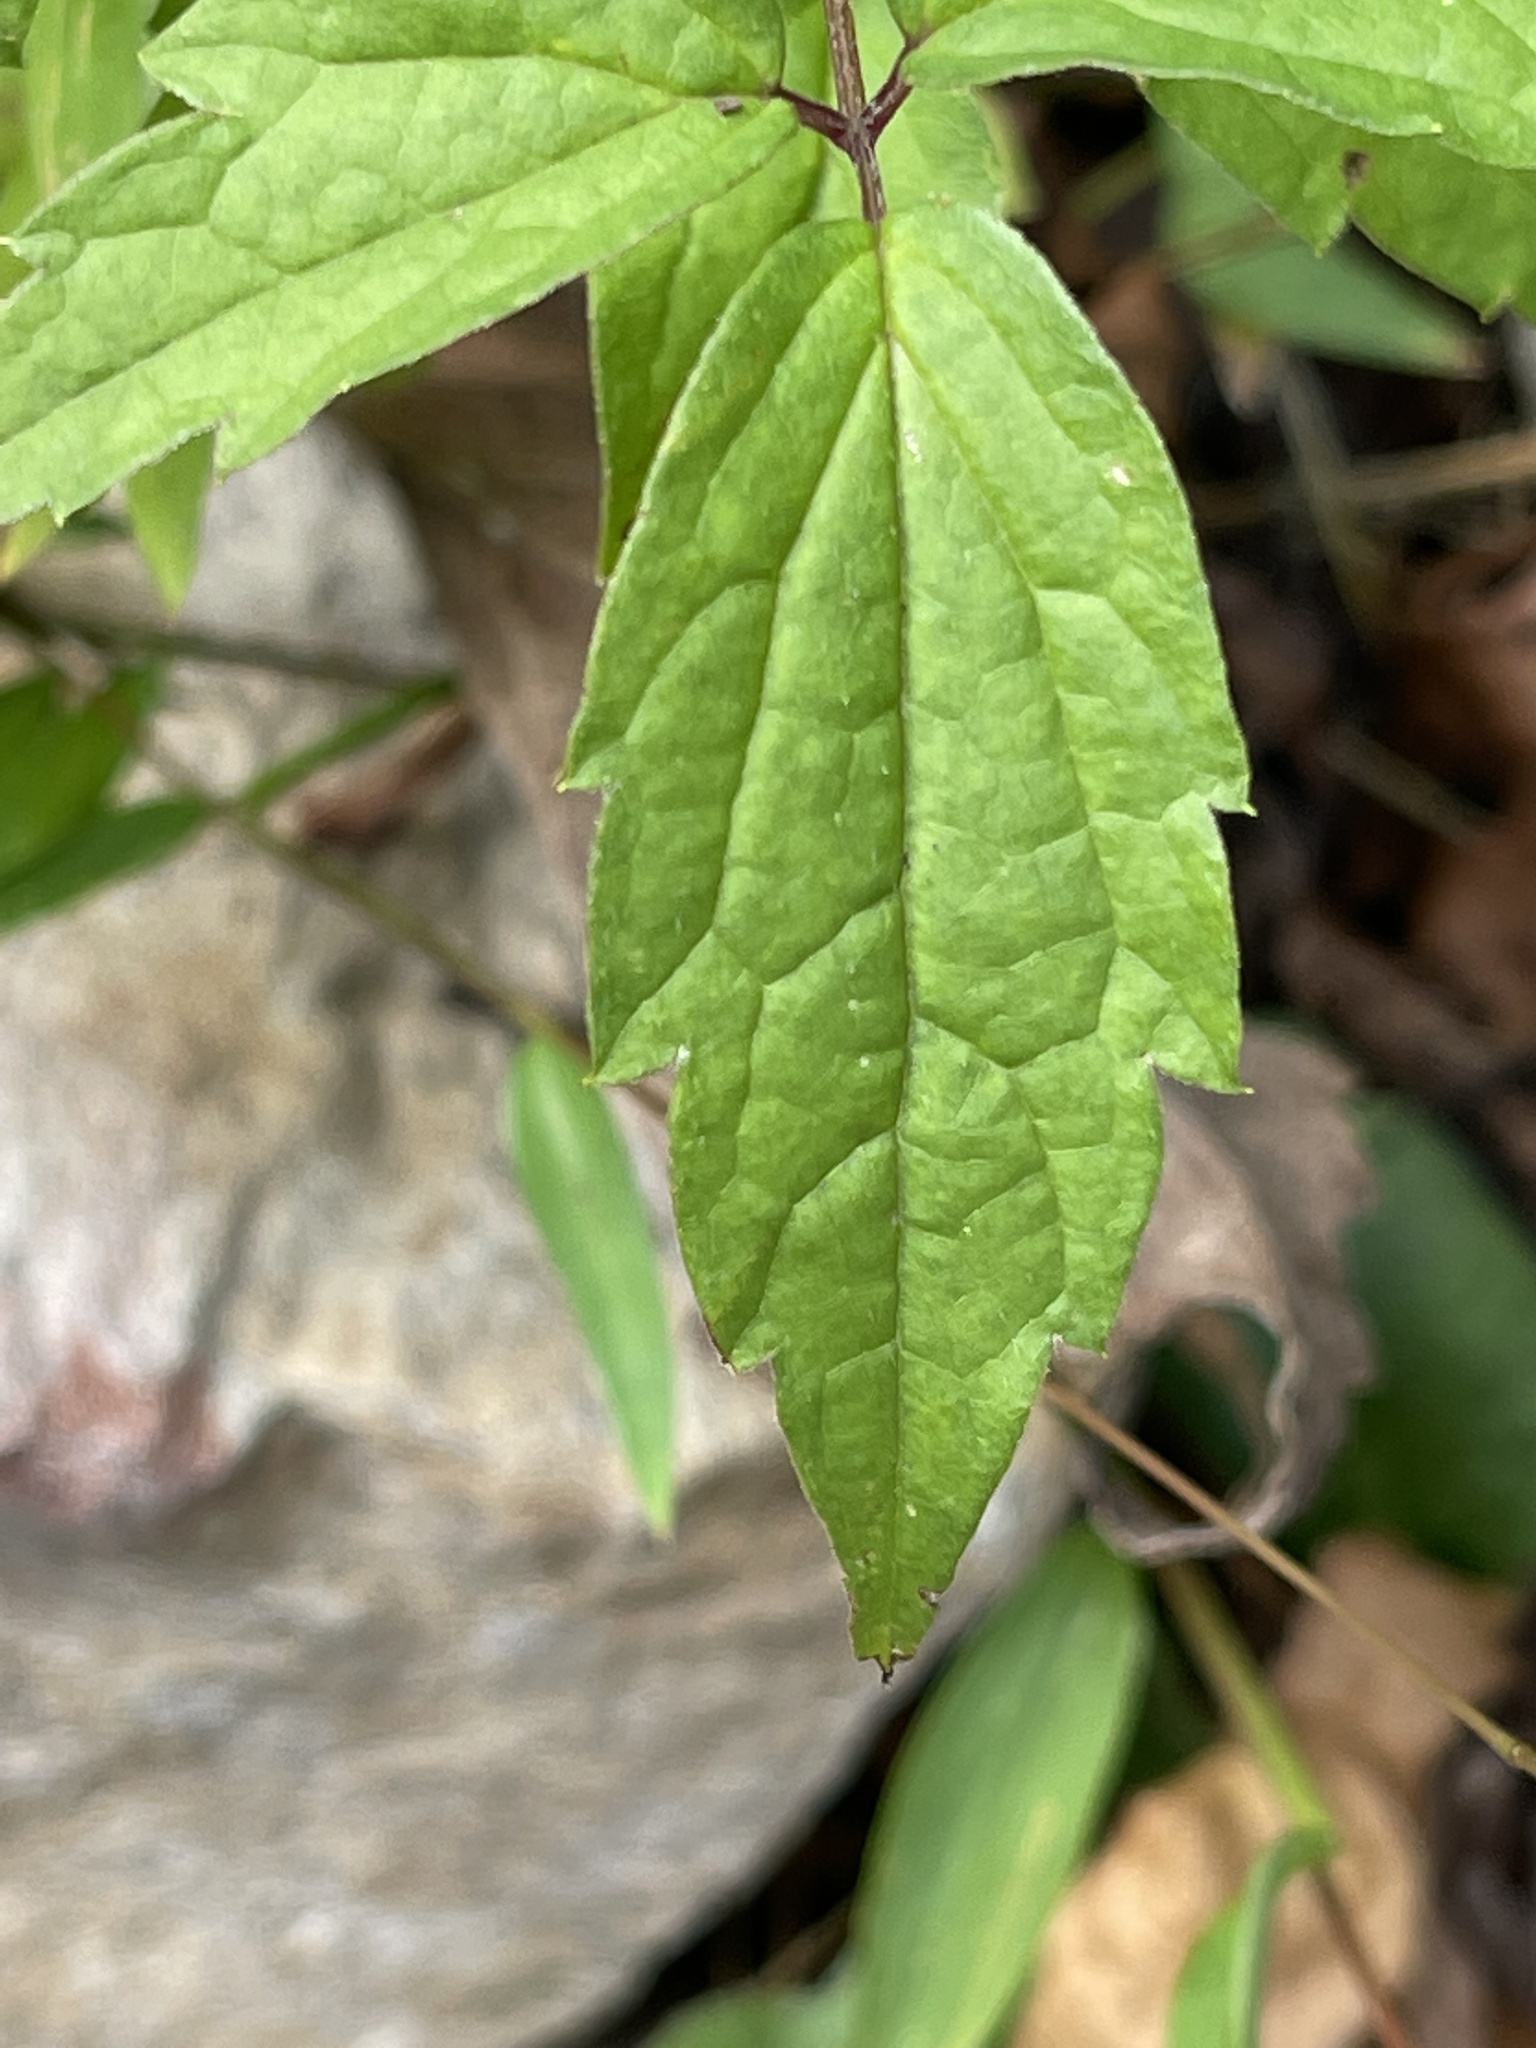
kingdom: Plantae
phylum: Tracheophyta
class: Magnoliopsida
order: Ranunculales
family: Ranunculaceae
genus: Clematis
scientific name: Clematis virginiana
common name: Virgin's-bower
